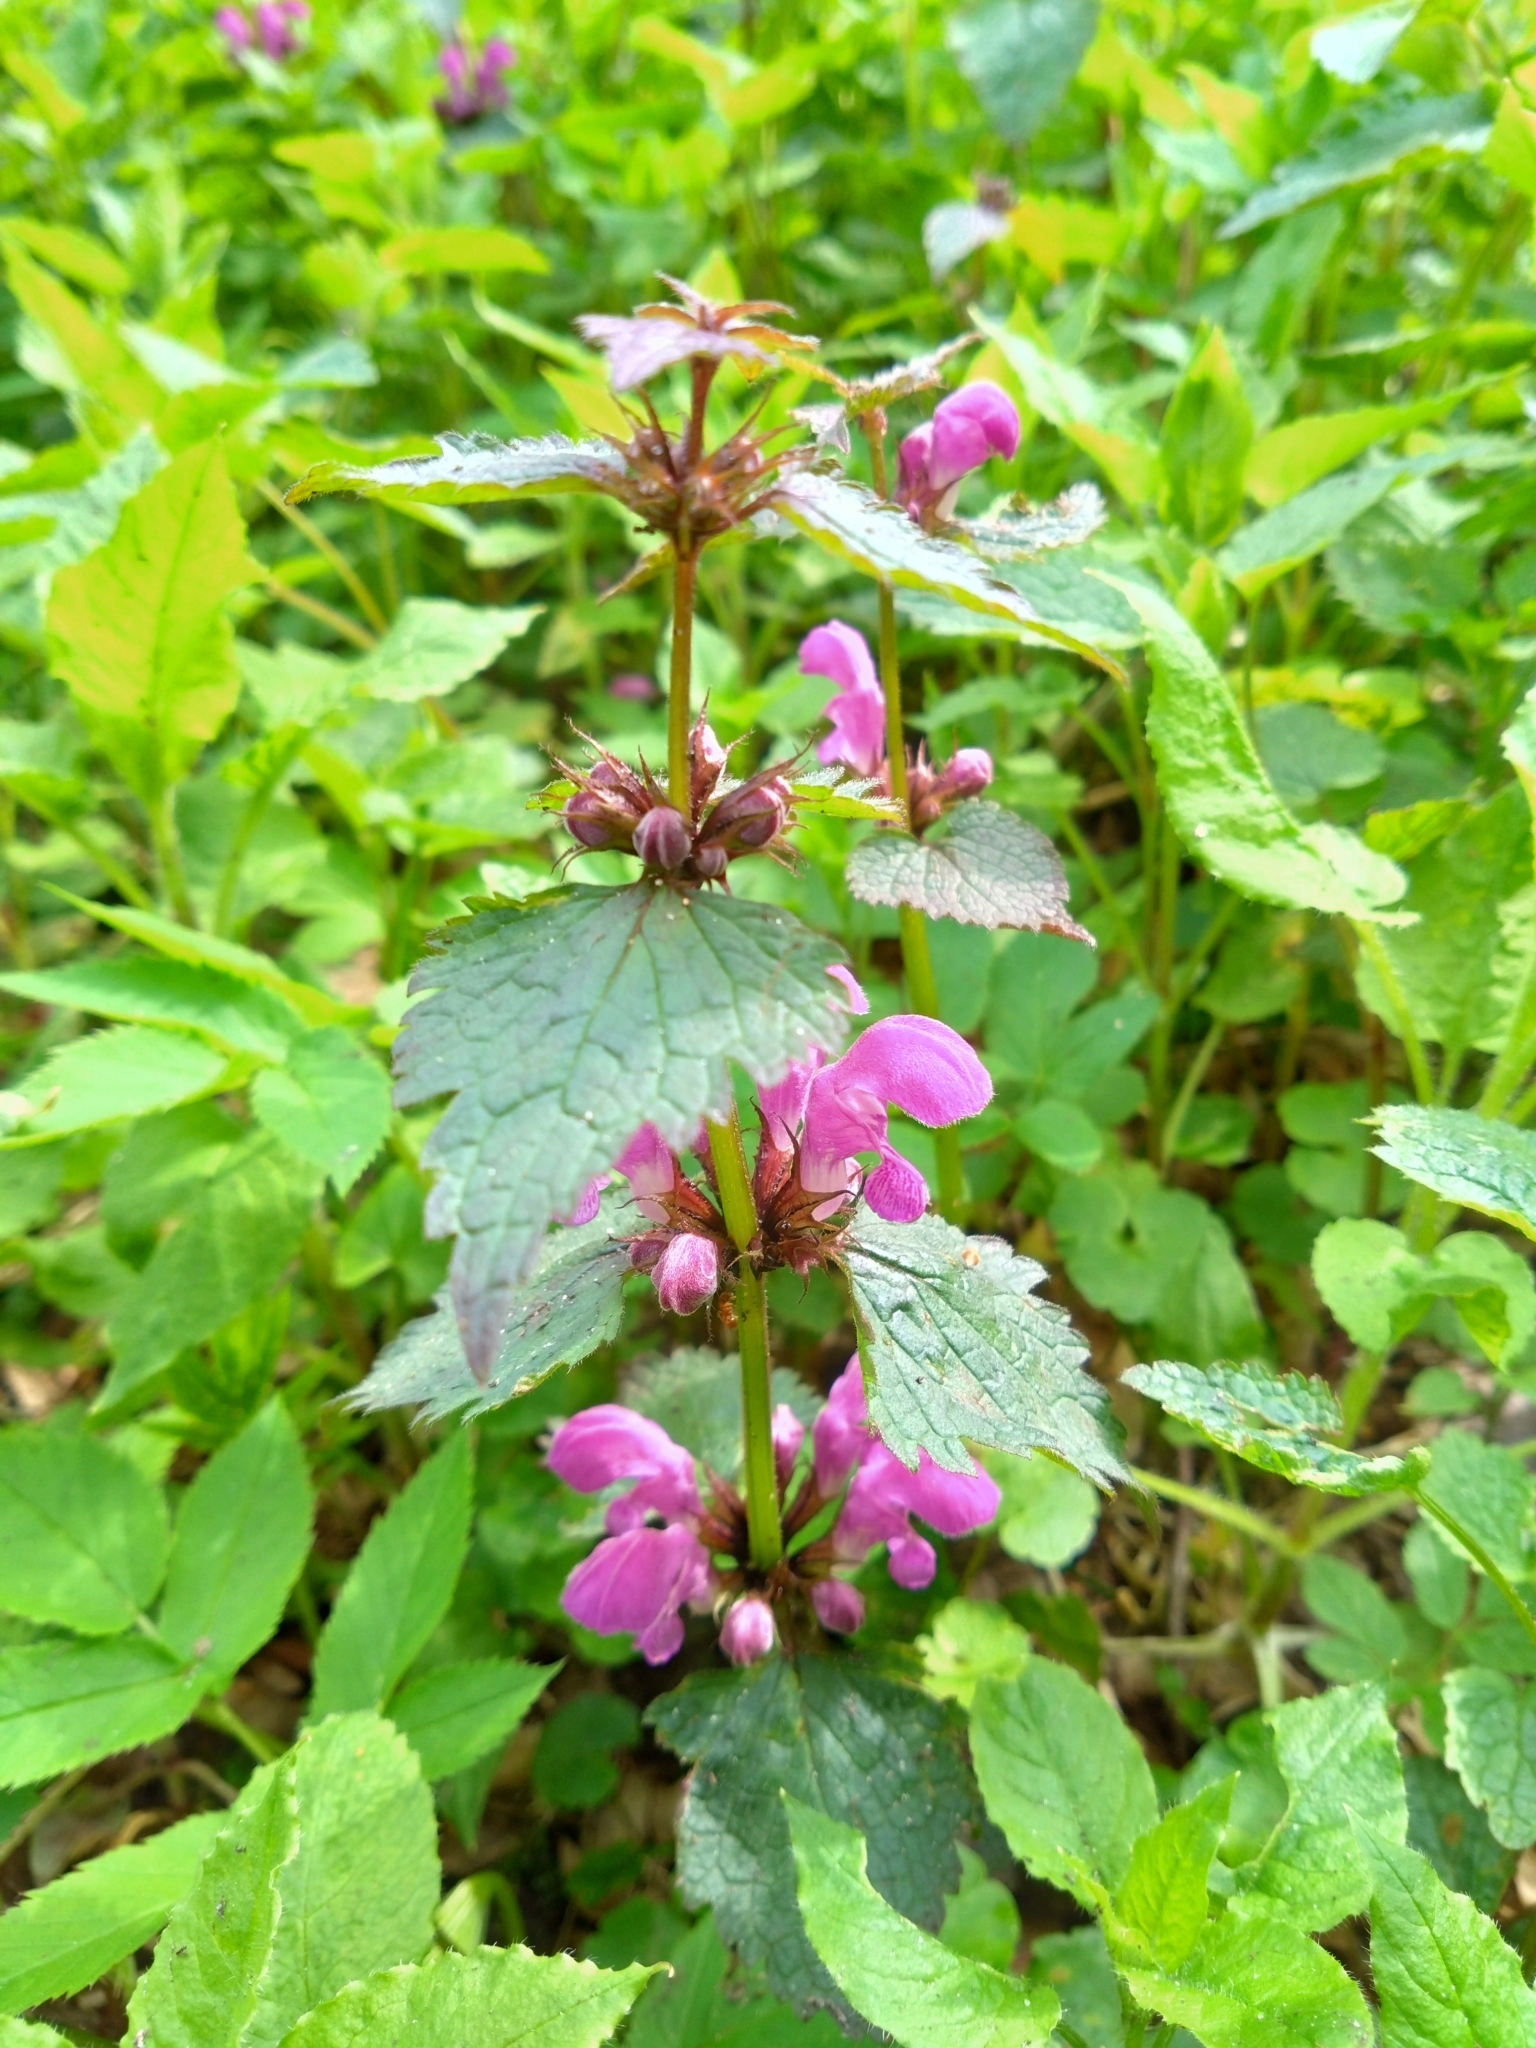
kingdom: Plantae
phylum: Tracheophyta
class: Magnoliopsida
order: Lamiales
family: Lamiaceae
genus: Lamium
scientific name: Lamium maculatum
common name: Spotted dead-nettle
